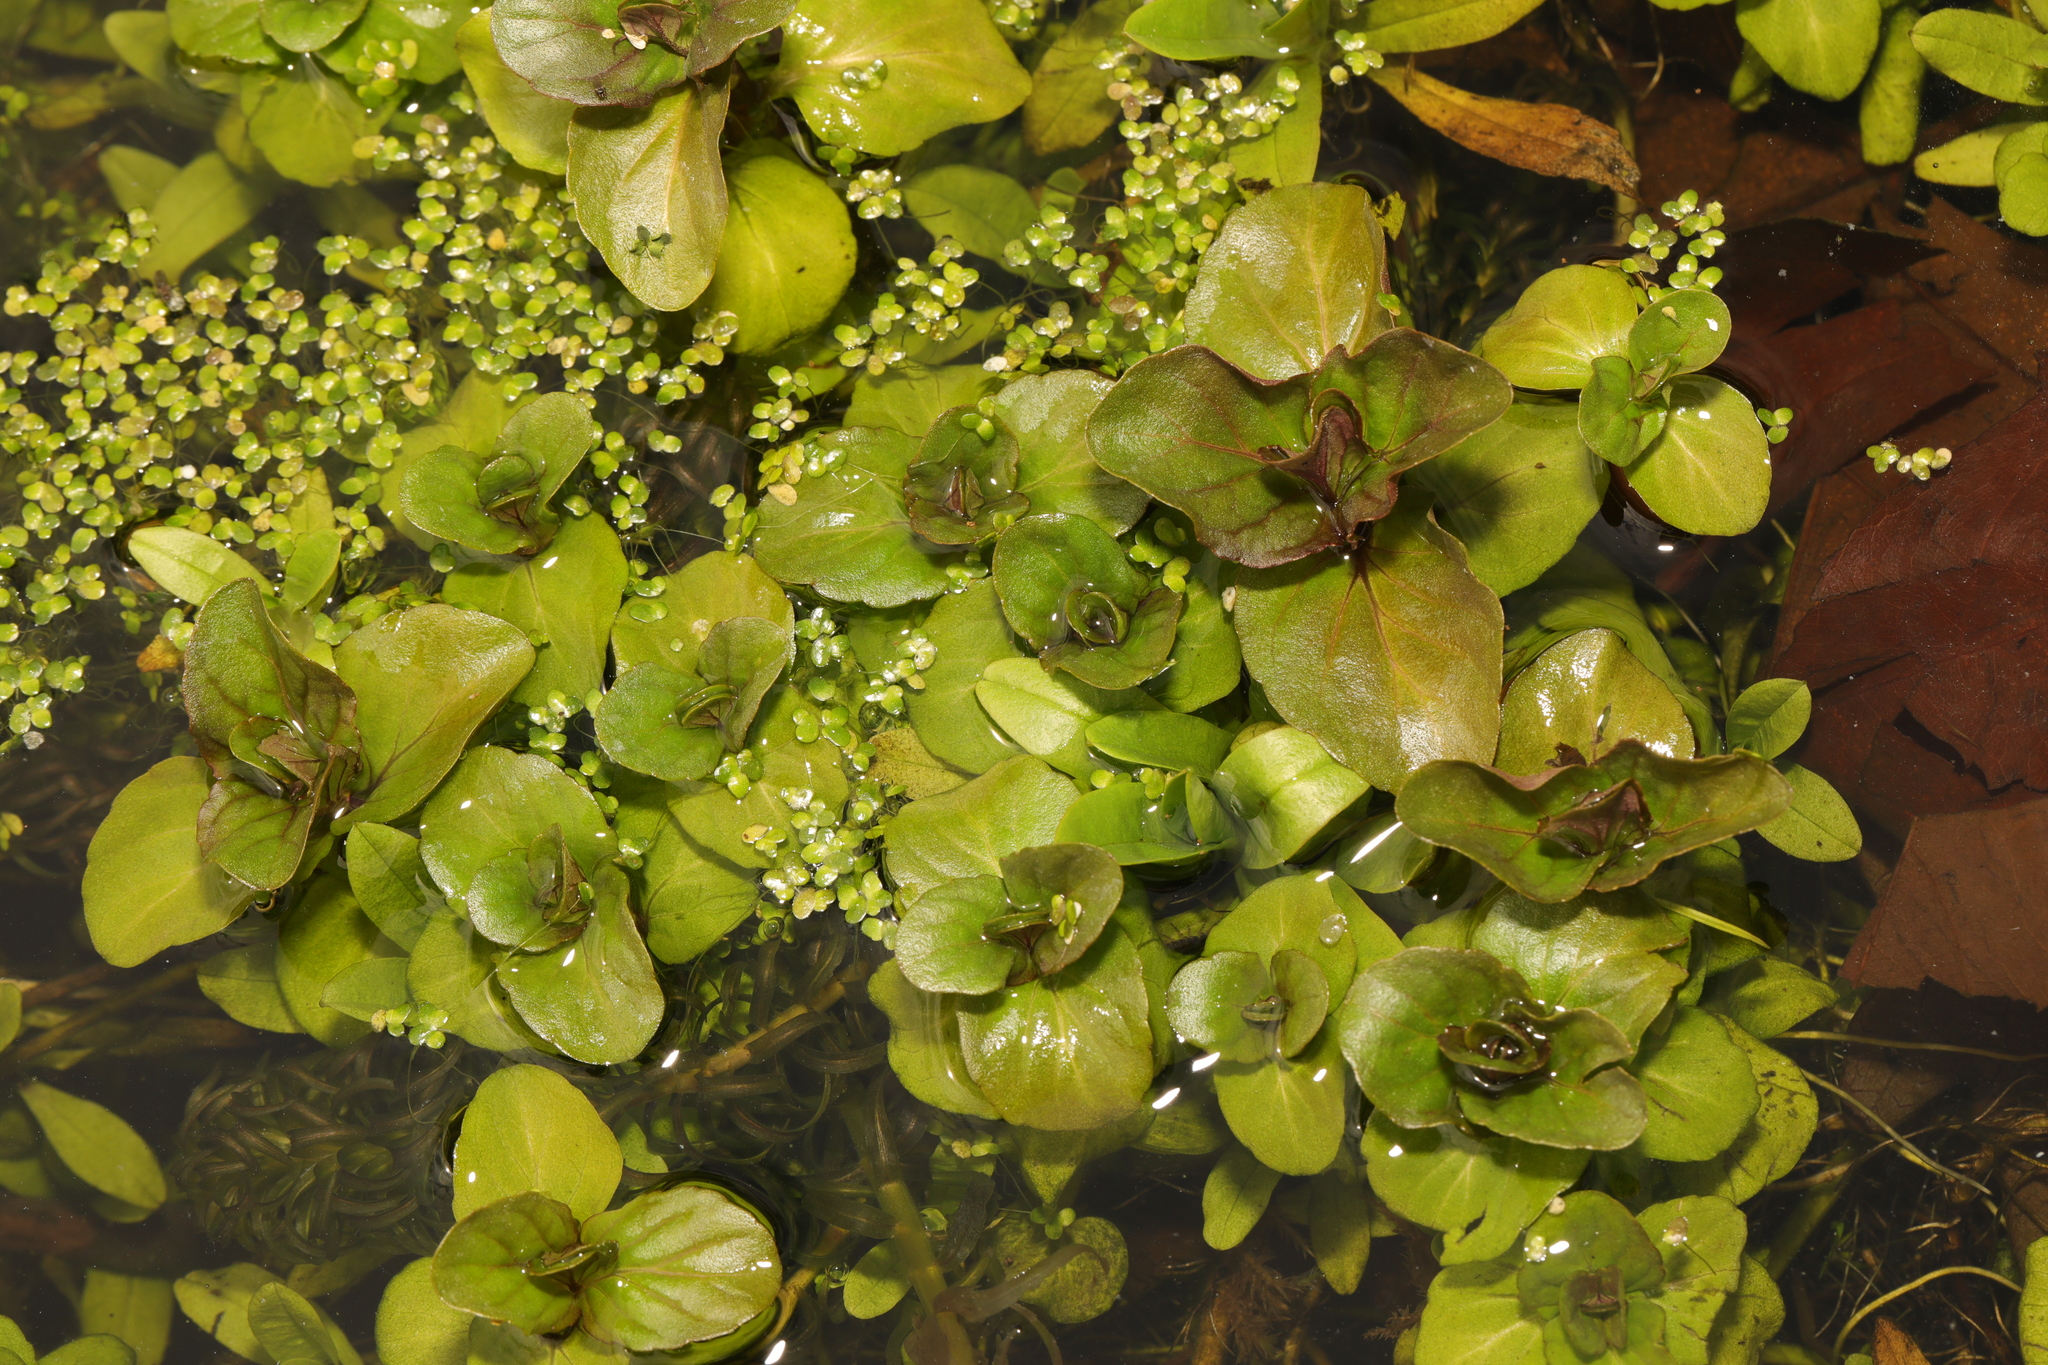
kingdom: Plantae
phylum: Tracheophyta
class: Magnoliopsida
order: Lamiales
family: Lamiaceae
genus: Mentha
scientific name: Mentha aquatica
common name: Water mint
